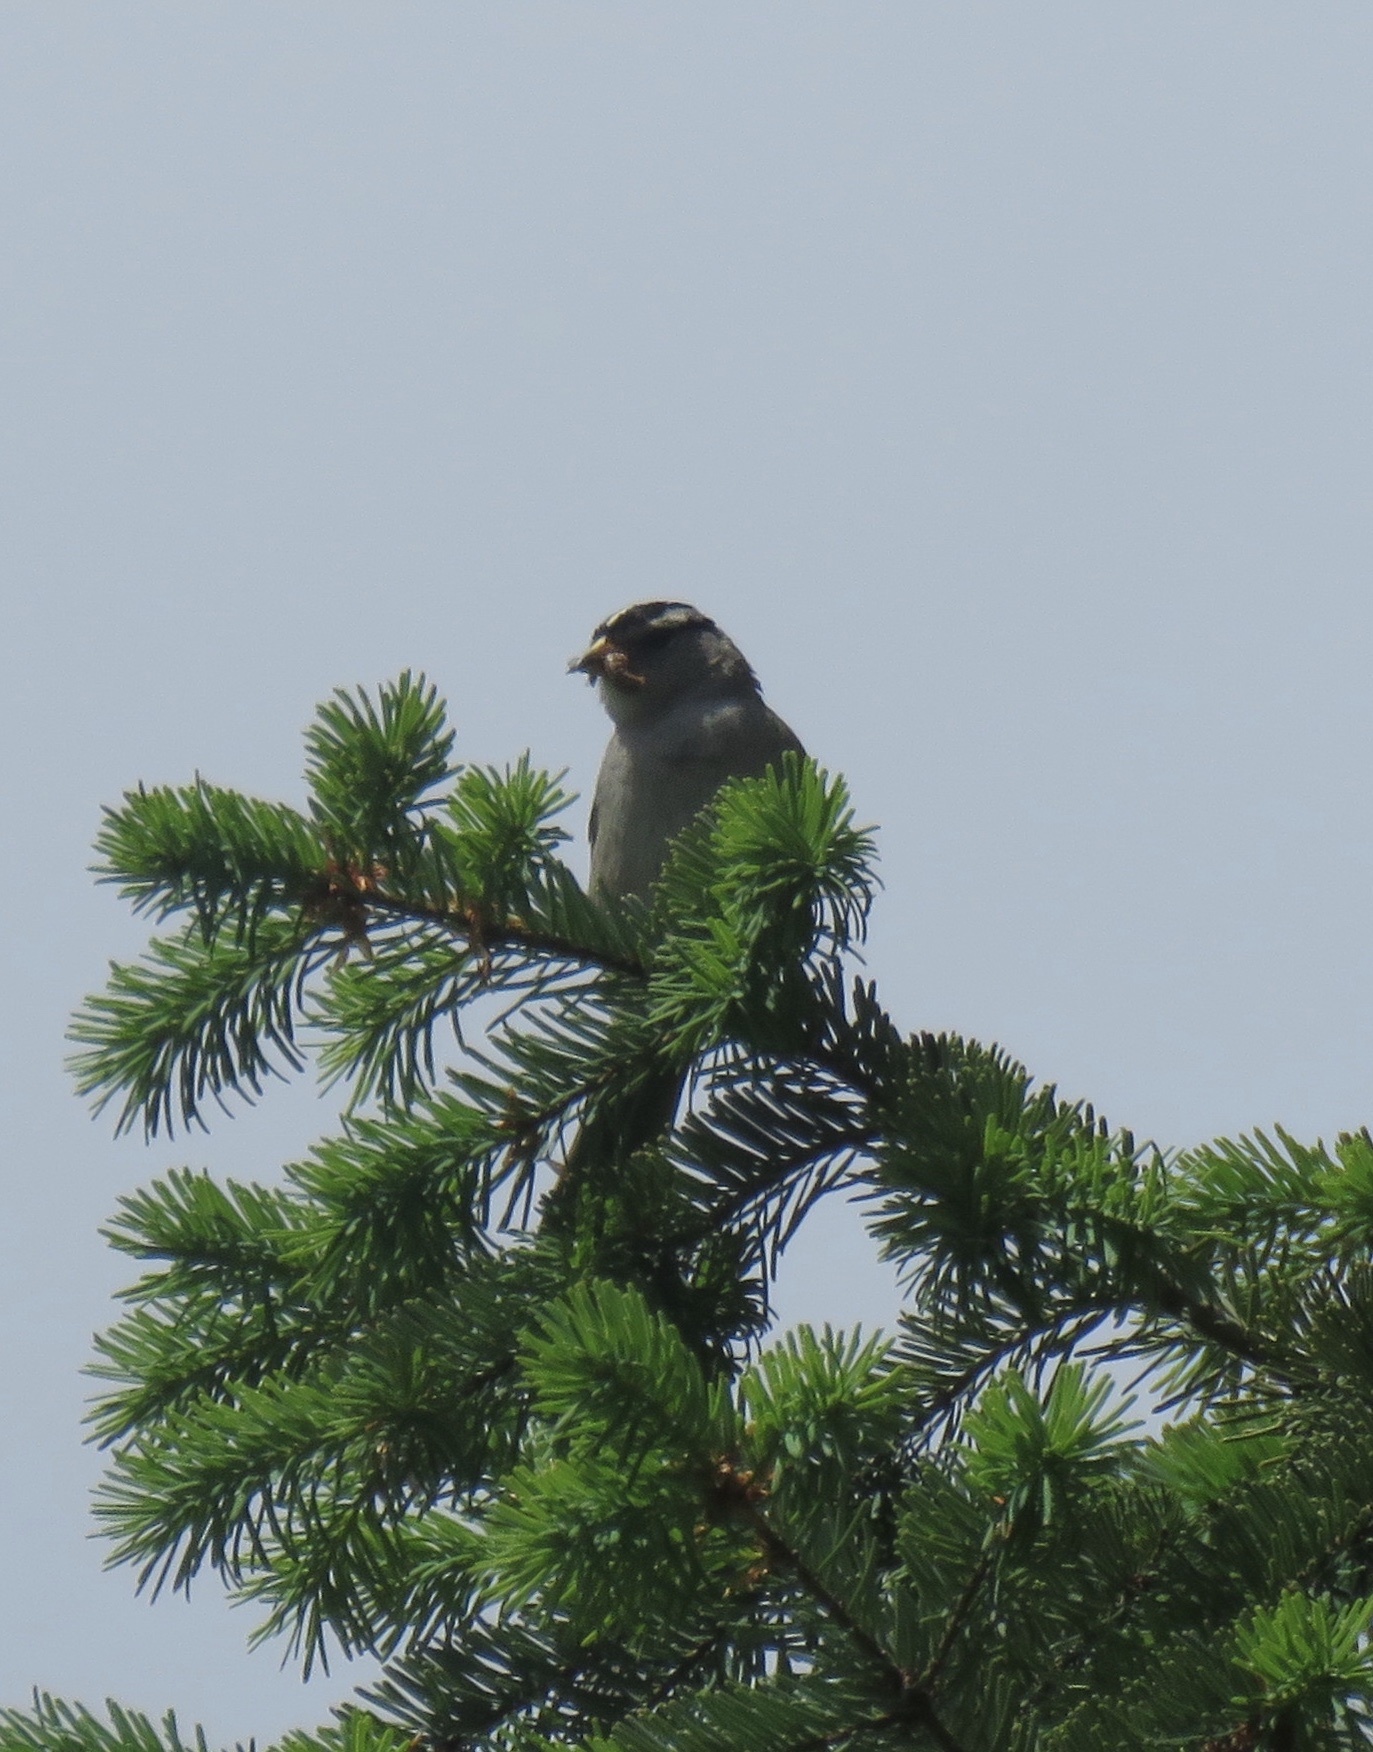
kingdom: Animalia
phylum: Chordata
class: Aves
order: Passeriformes
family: Passerellidae
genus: Zonotrichia
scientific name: Zonotrichia leucophrys
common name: White-crowned sparrow
